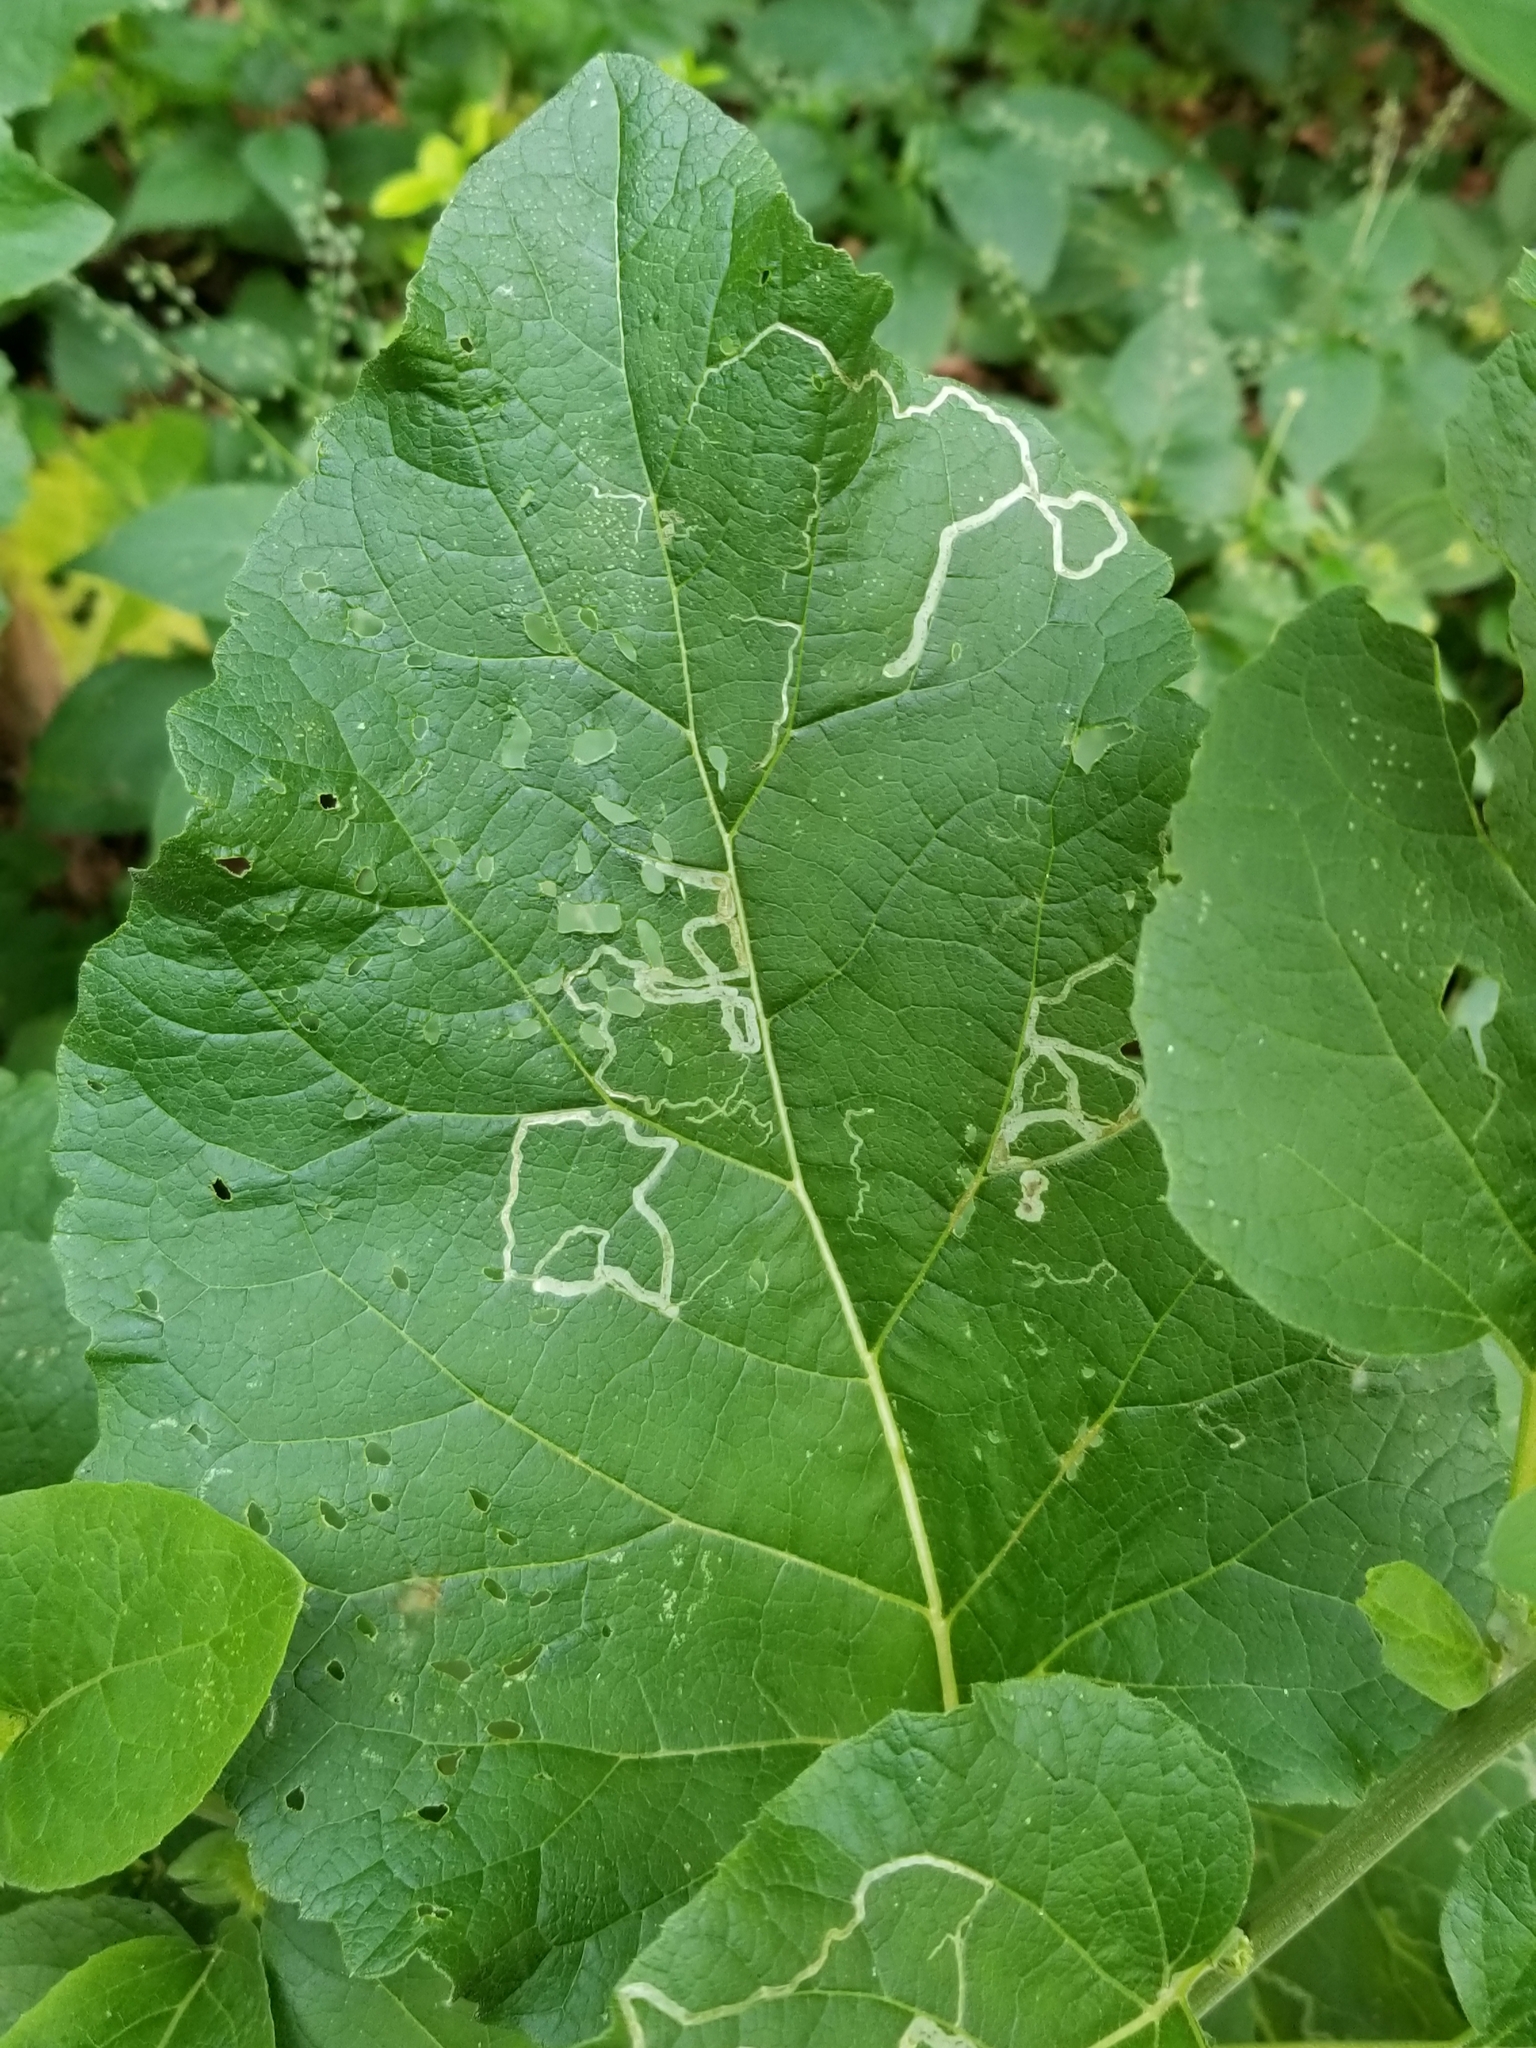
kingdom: Animalia
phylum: Arthropoda
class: Insecta
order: Diptera
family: Agromyzidae
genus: Liriomyza
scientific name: Liriomyza arctii
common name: Burdock leafminer
